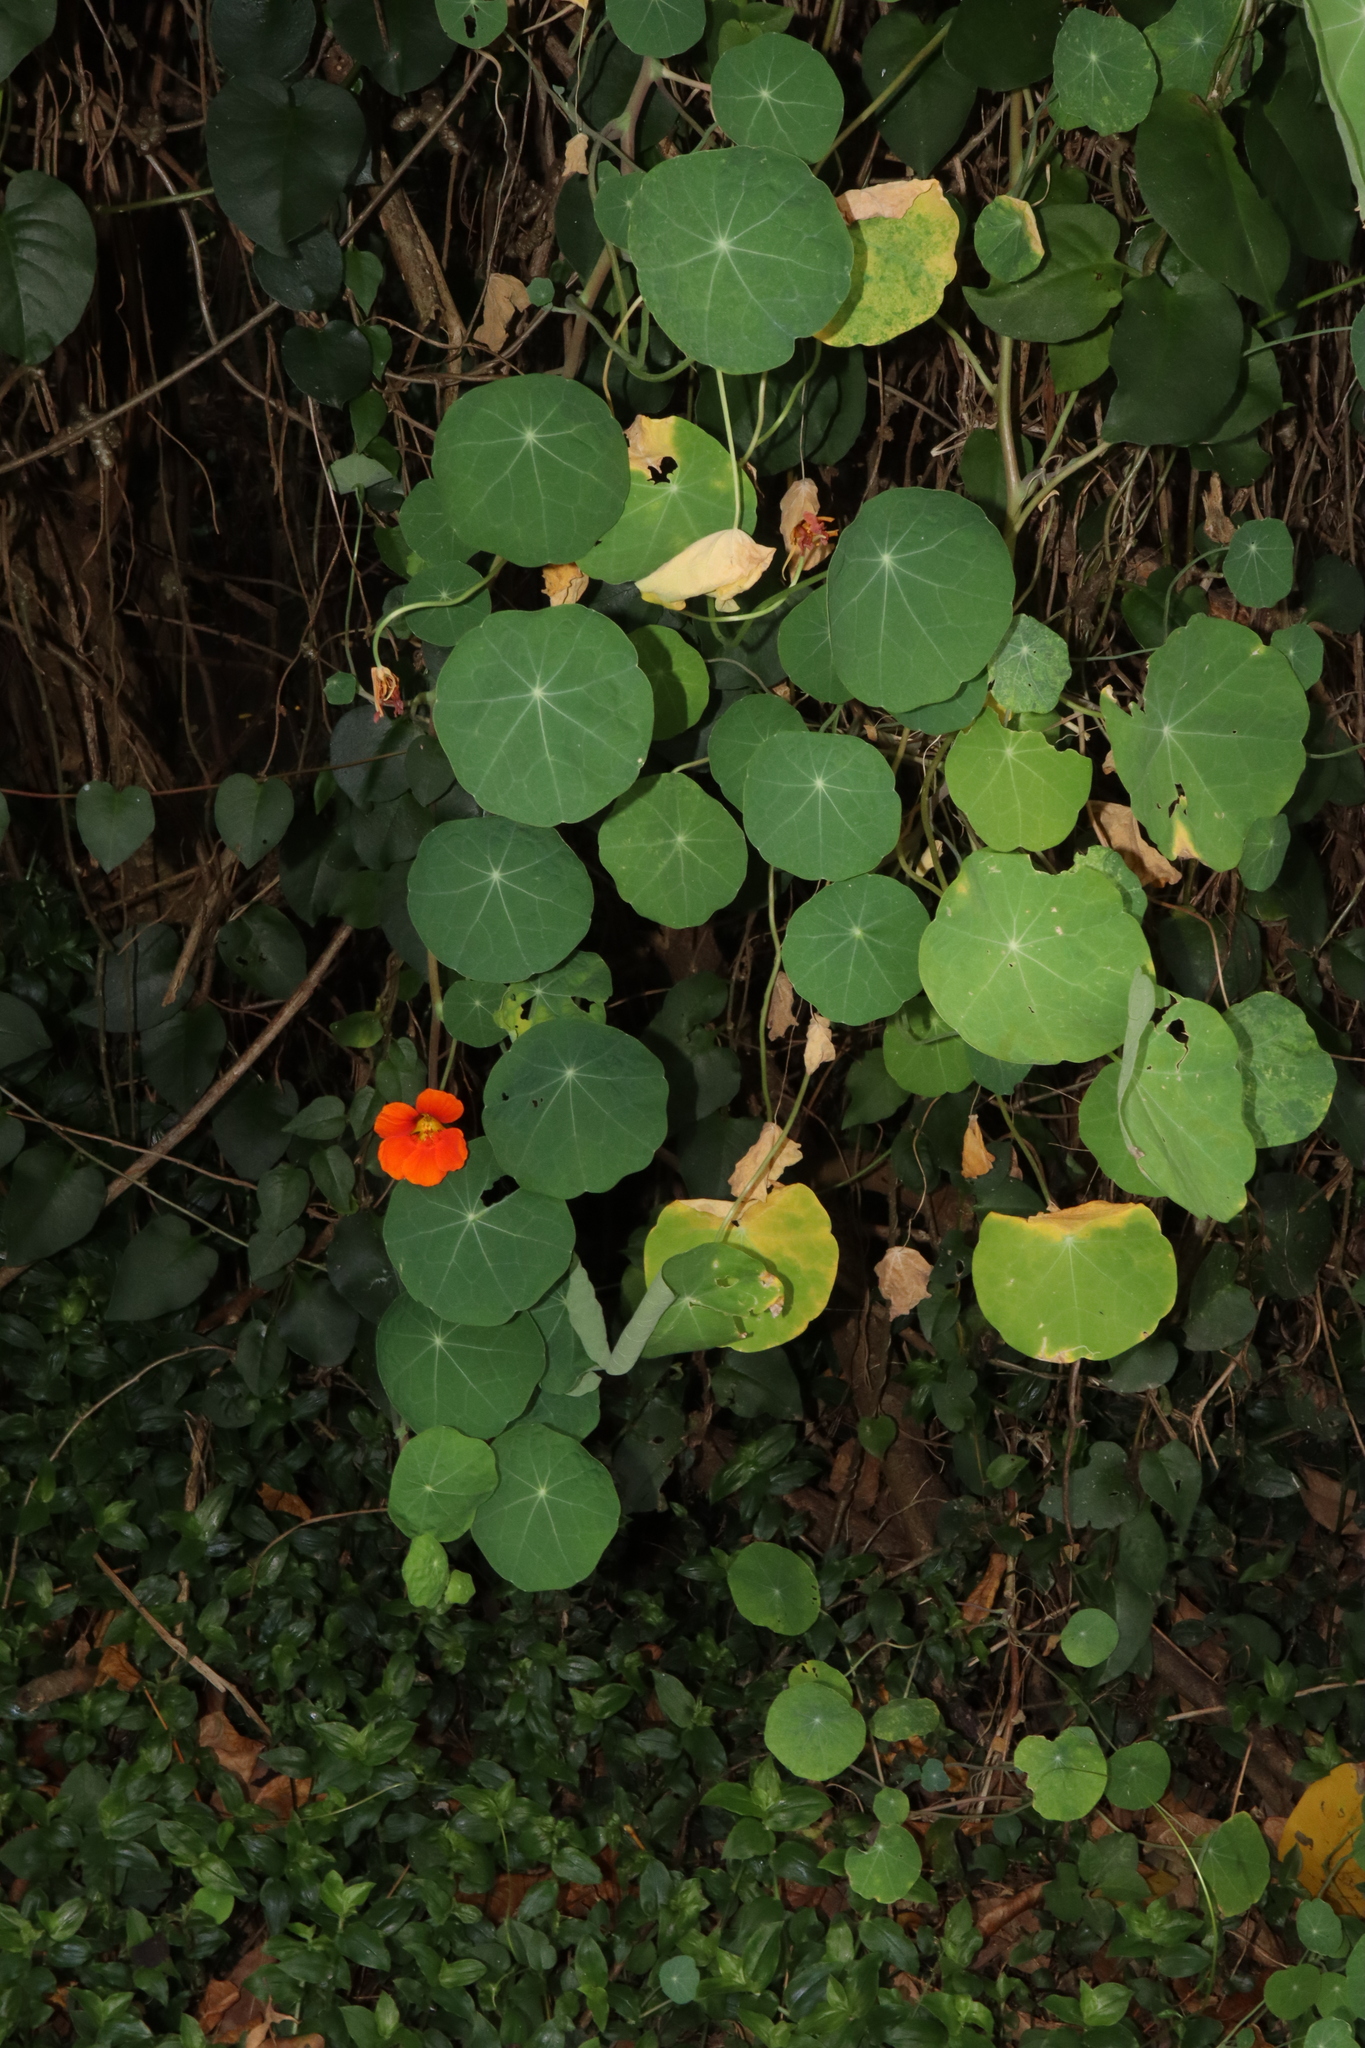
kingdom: Plantae
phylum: Tracheophyta
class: Magnoliopsida
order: Brassicales
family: Tropaeolaceae
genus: Tropaeolum
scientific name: Tropaeolum majus
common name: Nasturtium
